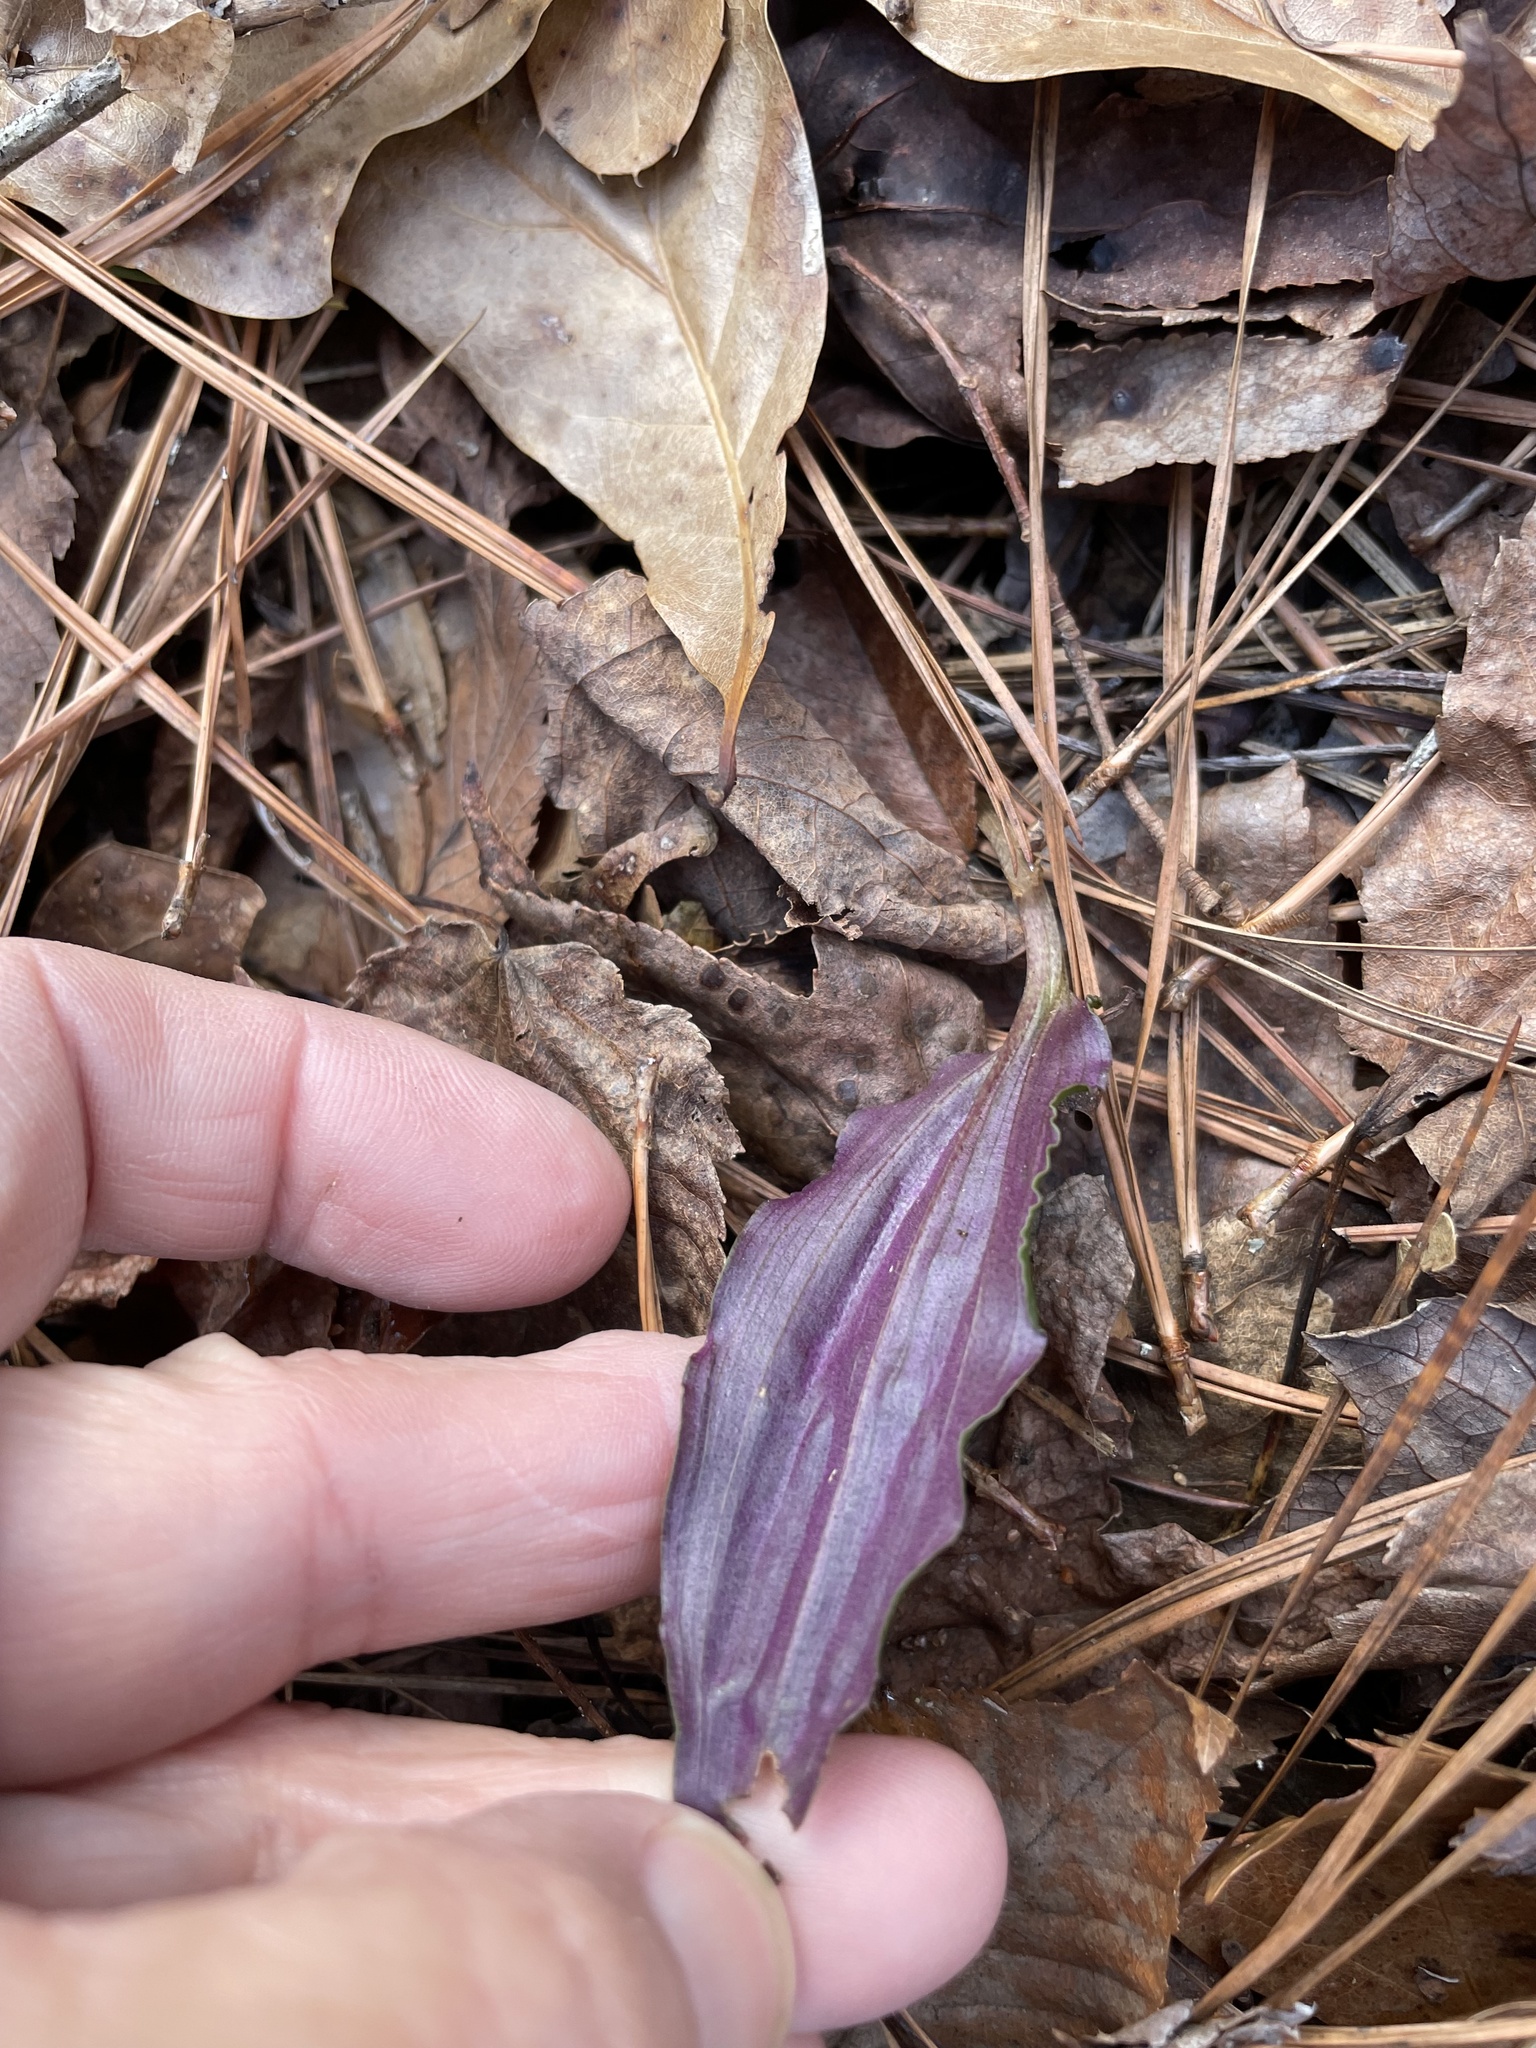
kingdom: Plantae
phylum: Tracheophyta
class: Liliopsida
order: Asparagales
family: Orchidaceae
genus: Tipularia
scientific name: Tipularia discolor
